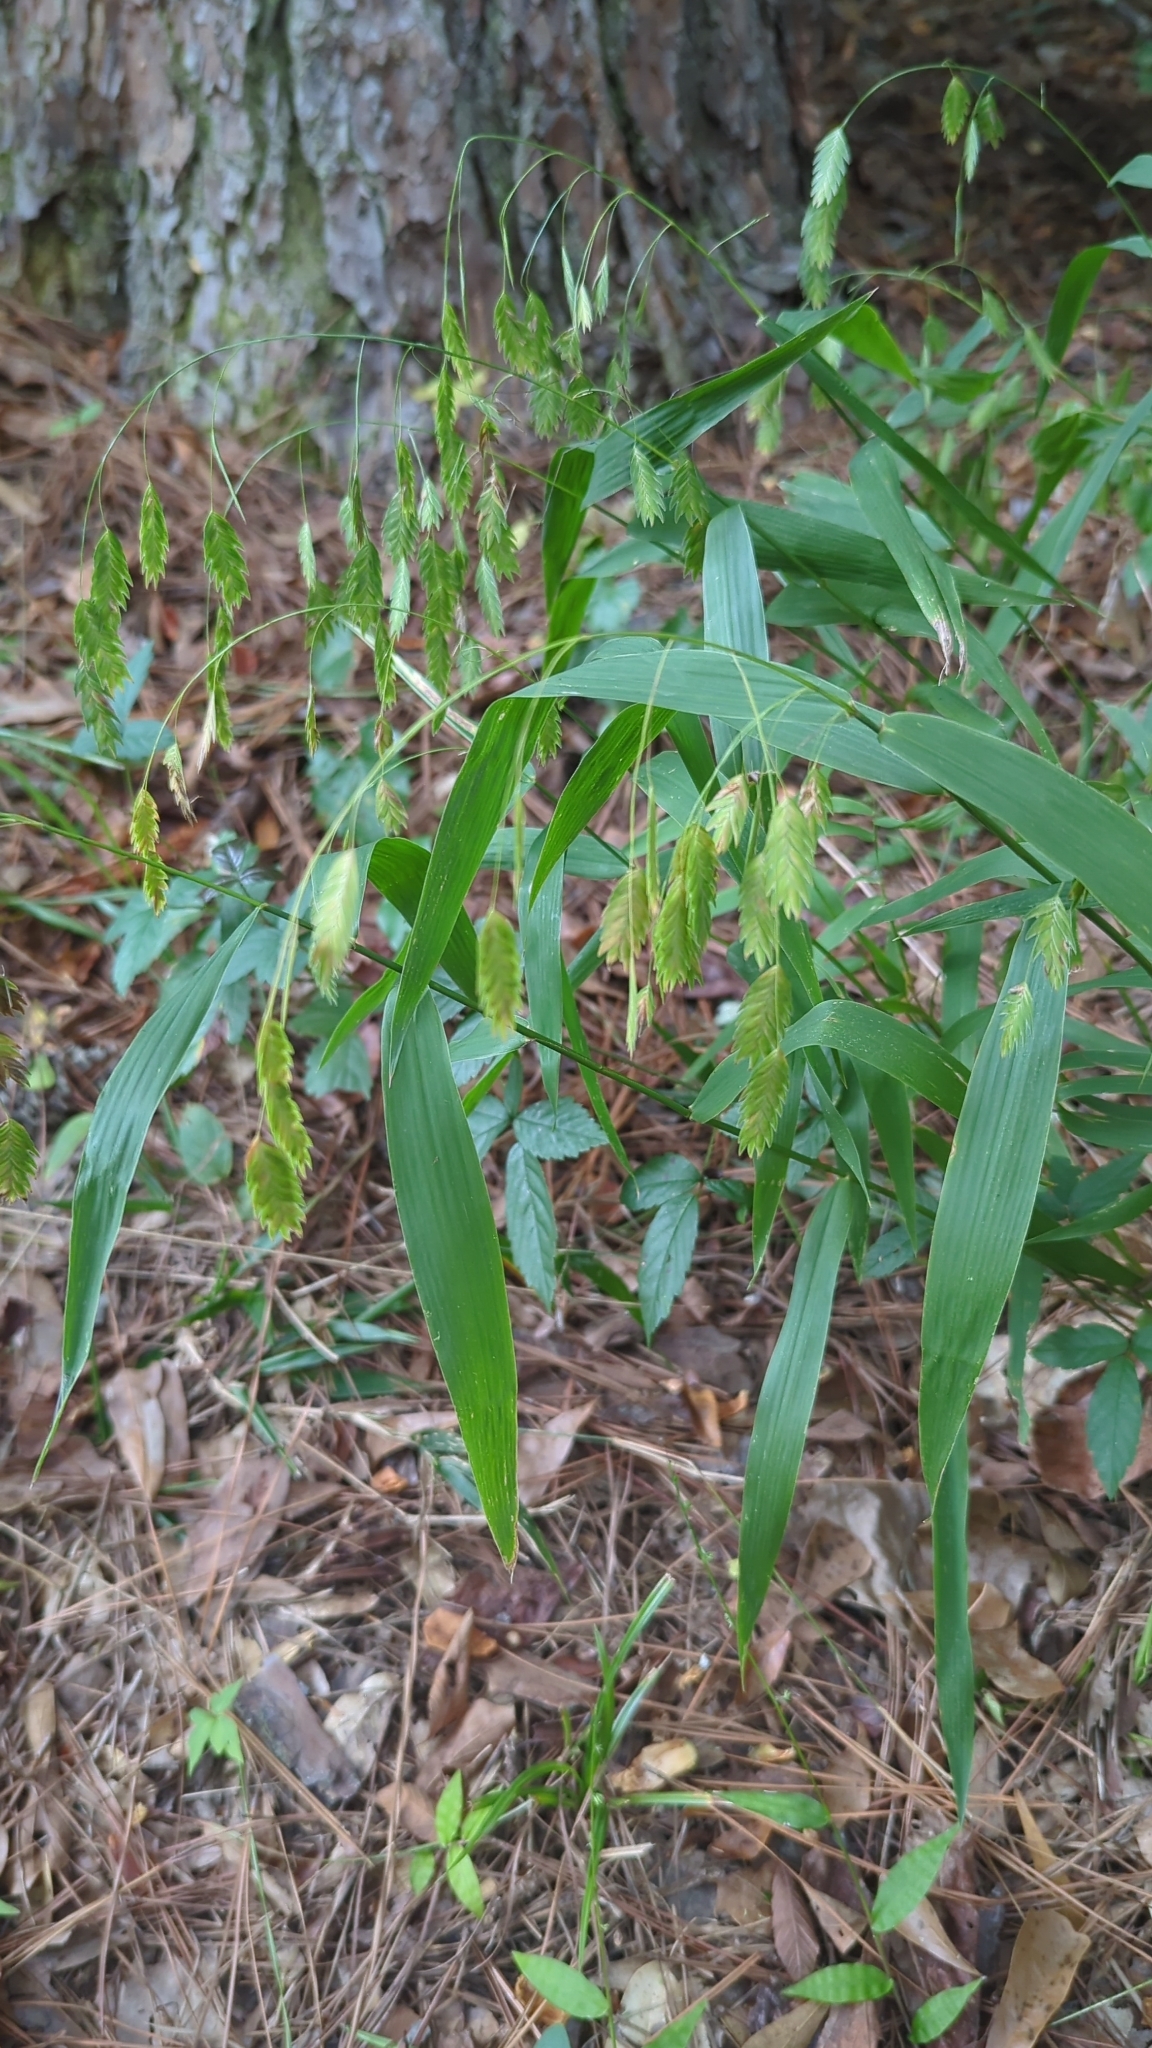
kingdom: Plantae
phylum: Tracheophyta
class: Liliopsida
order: Poales
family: Poaceae
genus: Chasmanthium
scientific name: Chasmanthium latifolium
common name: Broad-leaved chasmanthium
